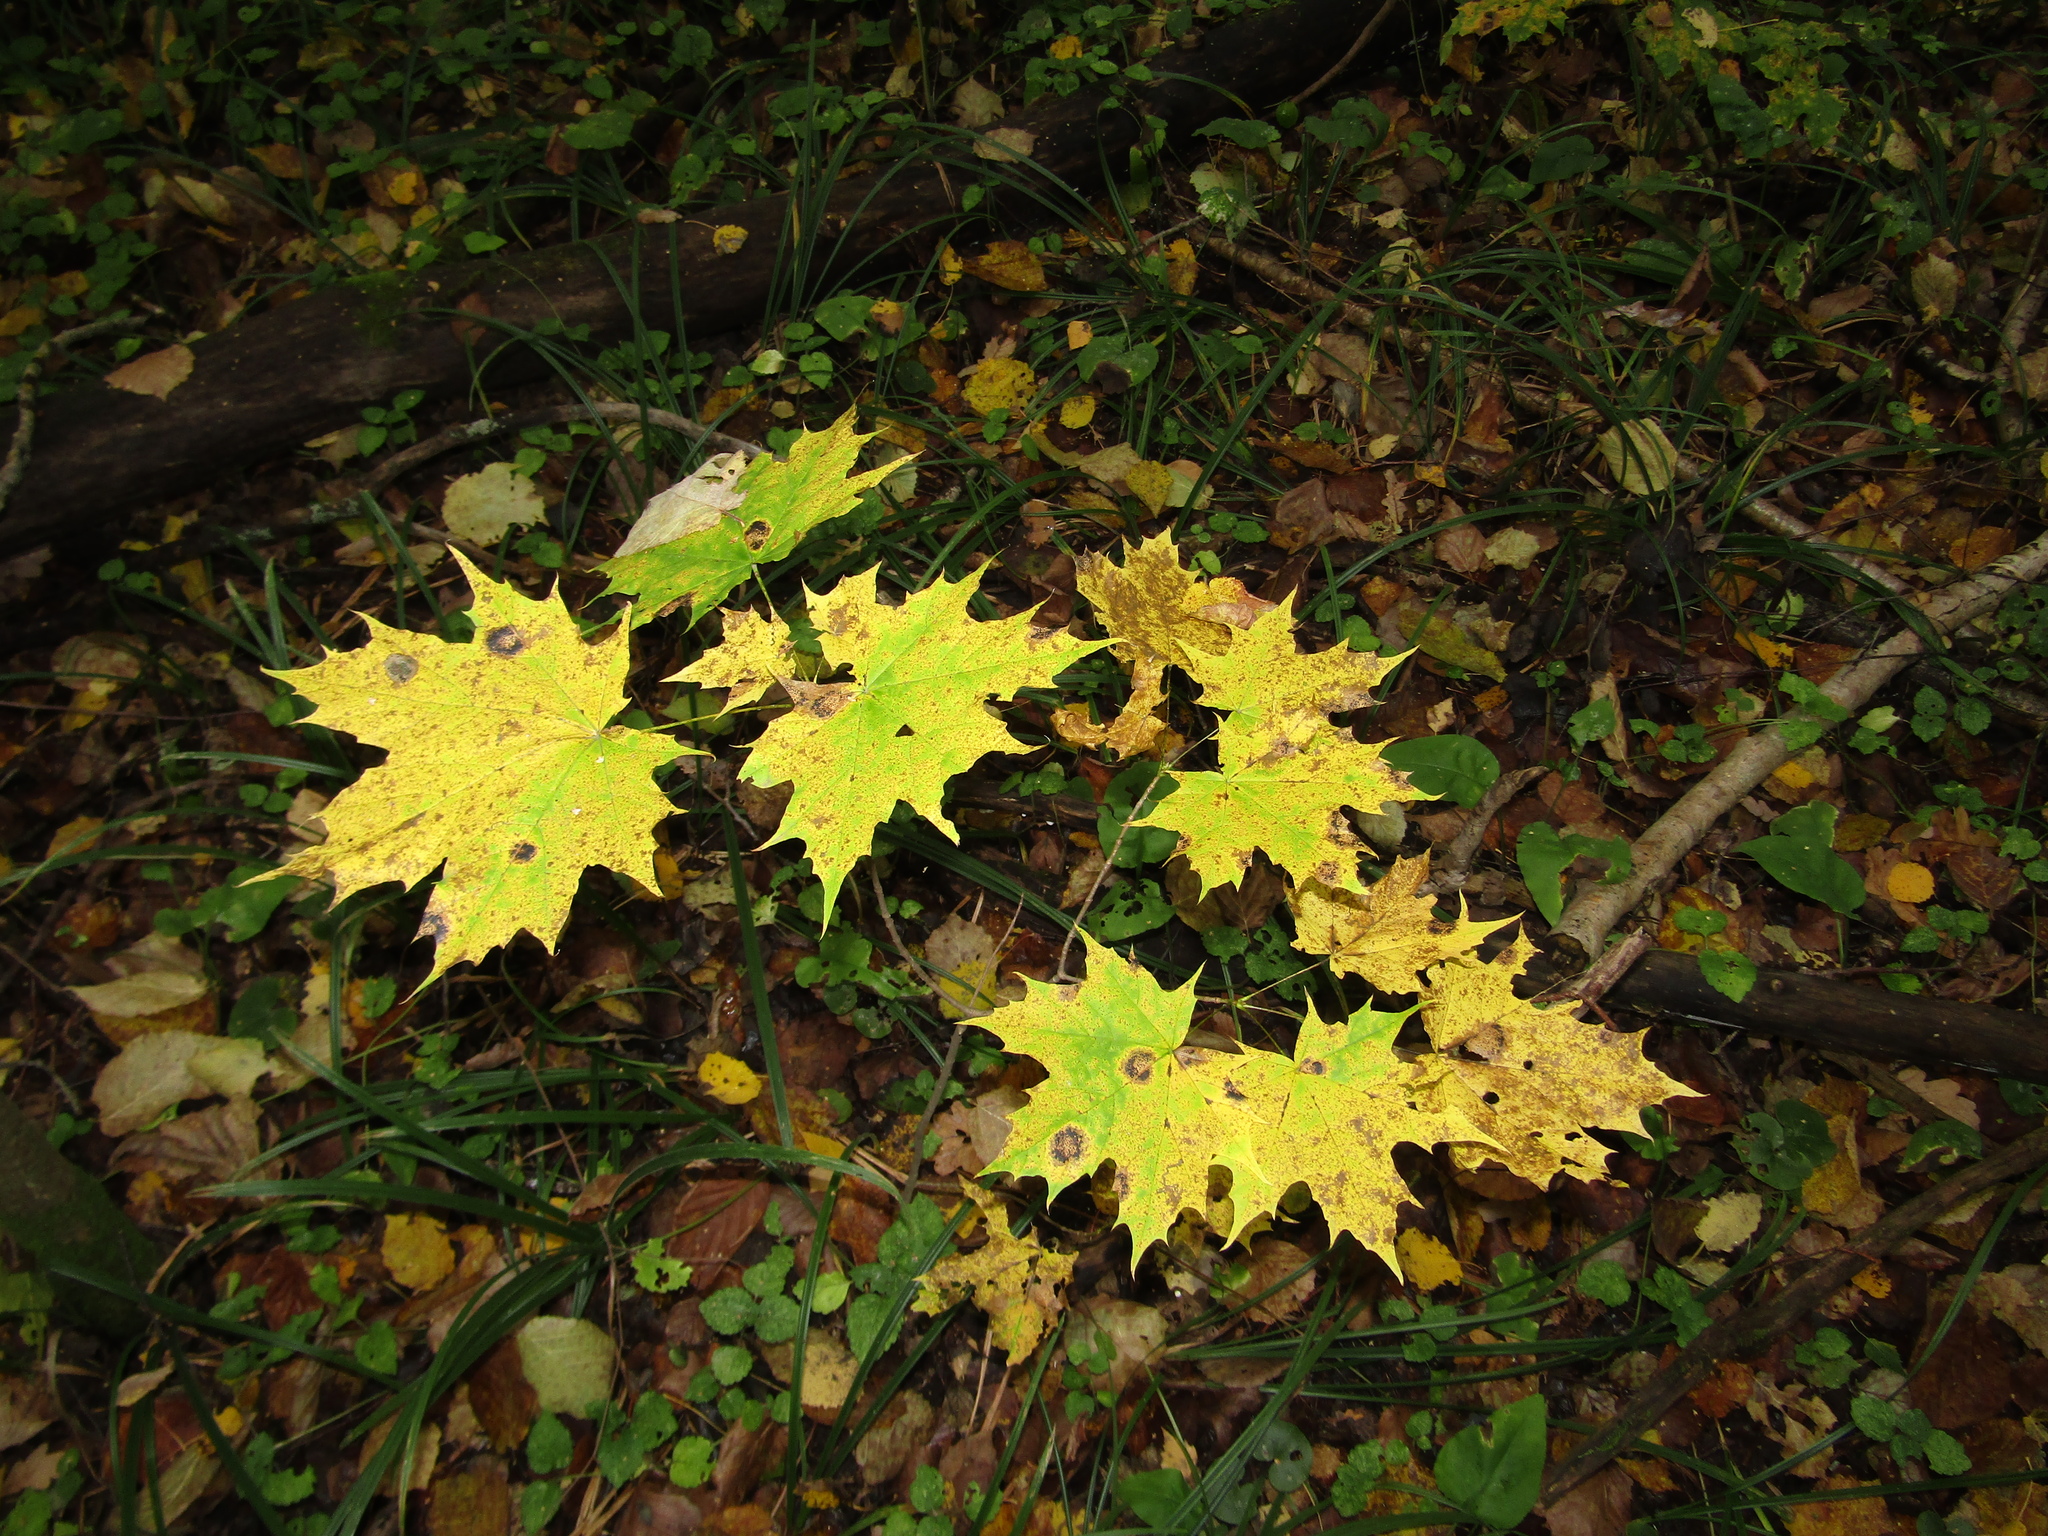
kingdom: Plantae
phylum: Tracheophyta
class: Magnoliopsida
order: Sapindales
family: Sapindaceae
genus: Acer
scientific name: Acer platanoides
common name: Norway maple
